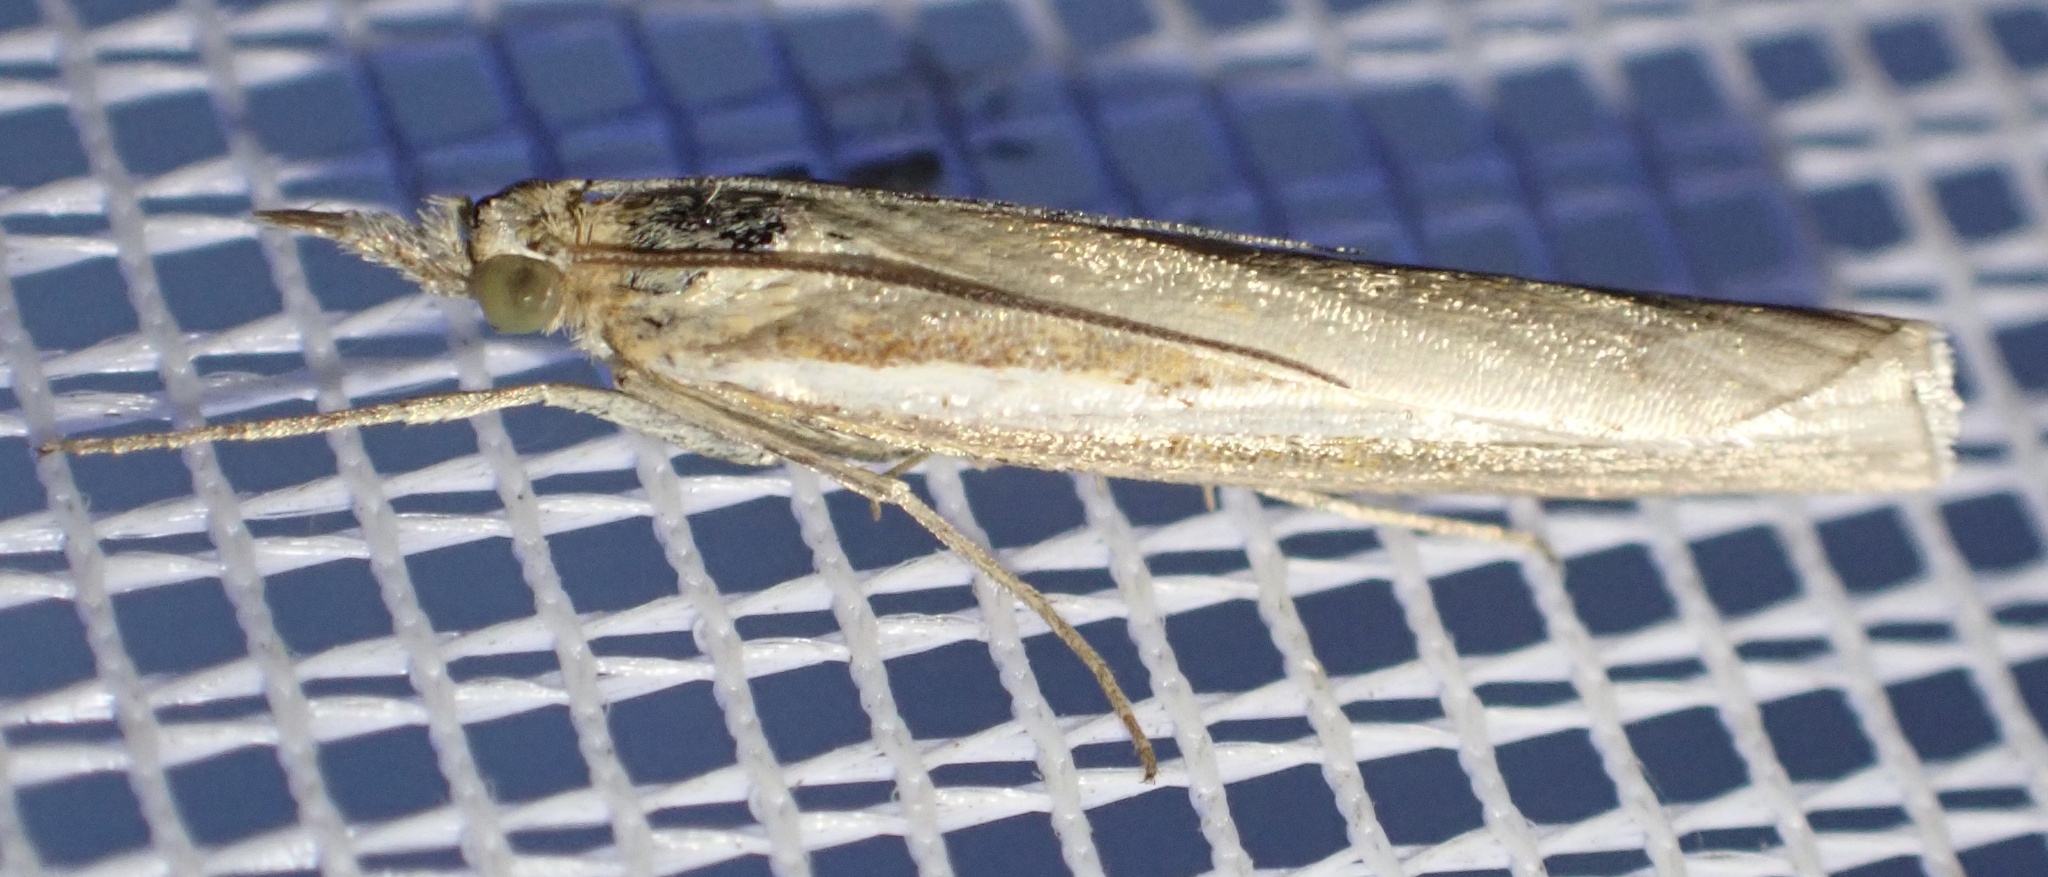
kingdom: Animalia
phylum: Arthropoda
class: Insecta
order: Lepidoptera
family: Crambidae
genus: Agriphila
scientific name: Agriphila tristellus
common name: Common grass-veneer
